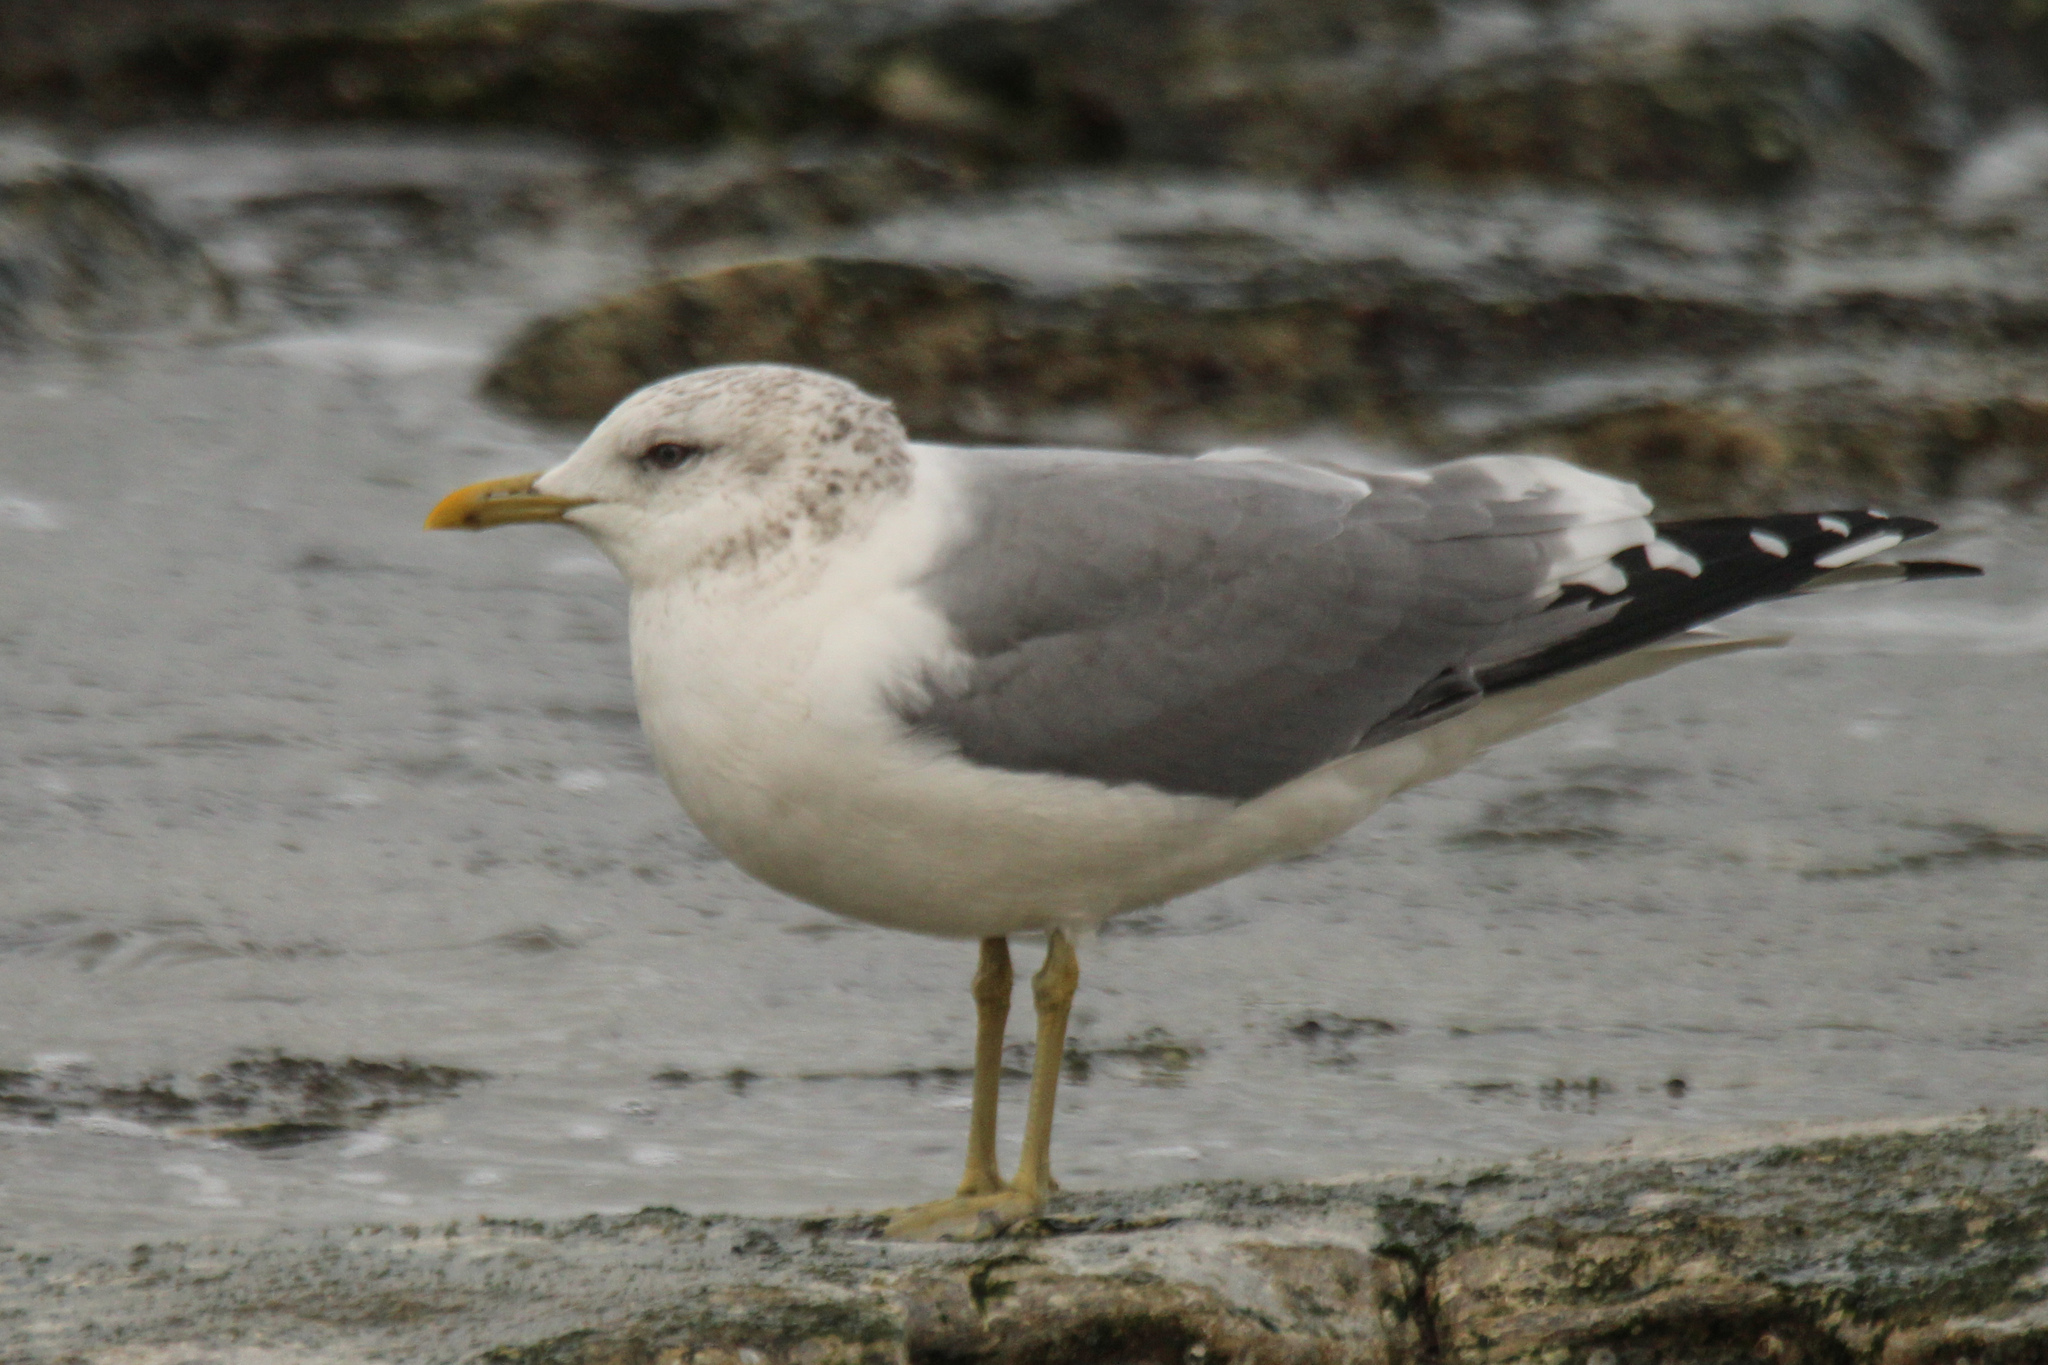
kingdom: Animalia
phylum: Chordata
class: Aves
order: Charadriiformes
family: Laridae
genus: Larus
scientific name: Larus canus
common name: Mew gull
